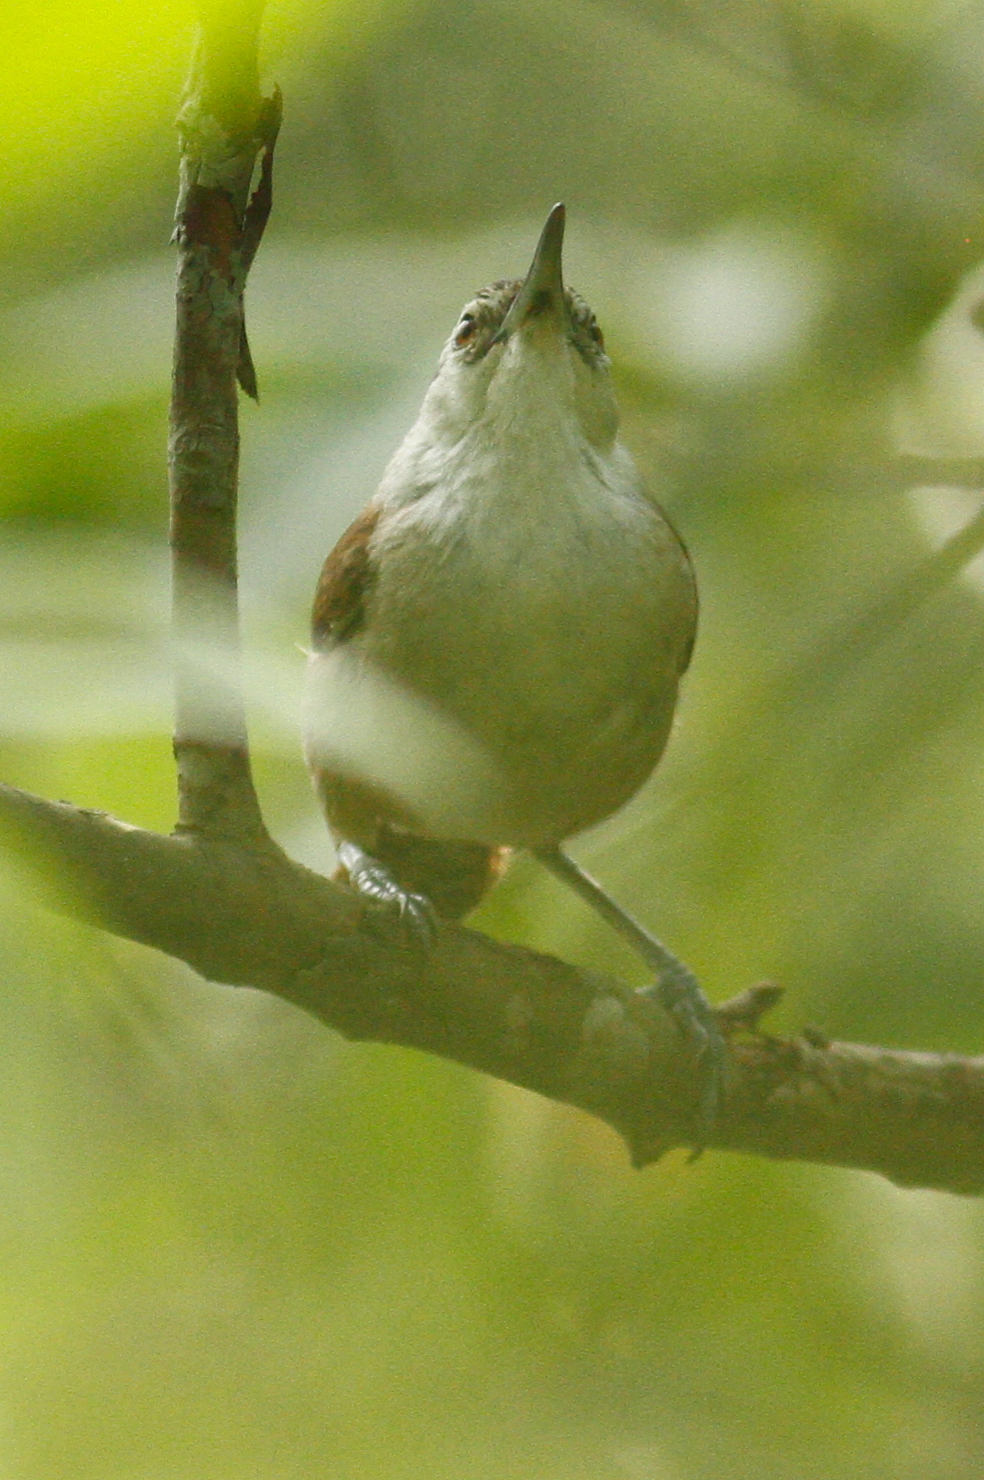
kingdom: Animalia
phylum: Chordata
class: Aves
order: Passeriformes
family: Troglodytidae
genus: Cantorchilus
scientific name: Cantorchilus superciliaris
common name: Superciliated wren
